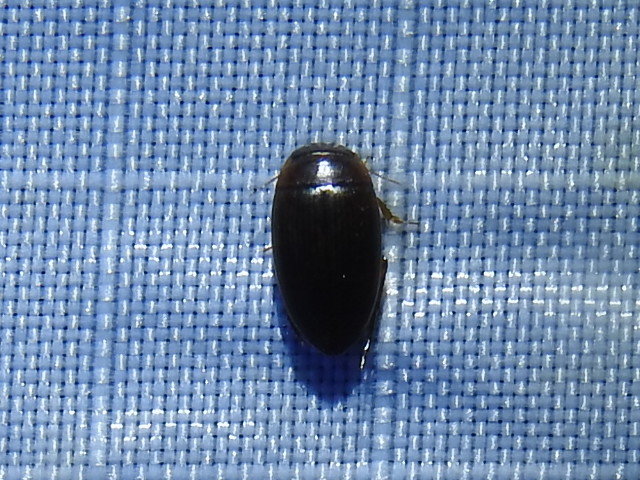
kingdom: Animalia
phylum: Arthropoda
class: Insecta
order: Coleoptera
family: Dytiscidae
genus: Copelatus
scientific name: Copelatus
